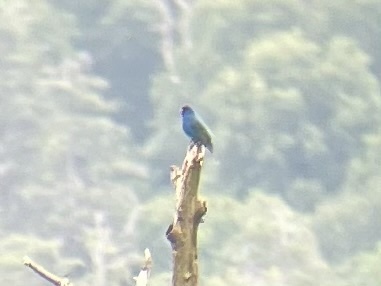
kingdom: Animalia
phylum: Chordata
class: Aves
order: Passeriformes
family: Cardinalidae
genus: Passerina
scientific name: Passerina cyanea
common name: Indigo bunting
